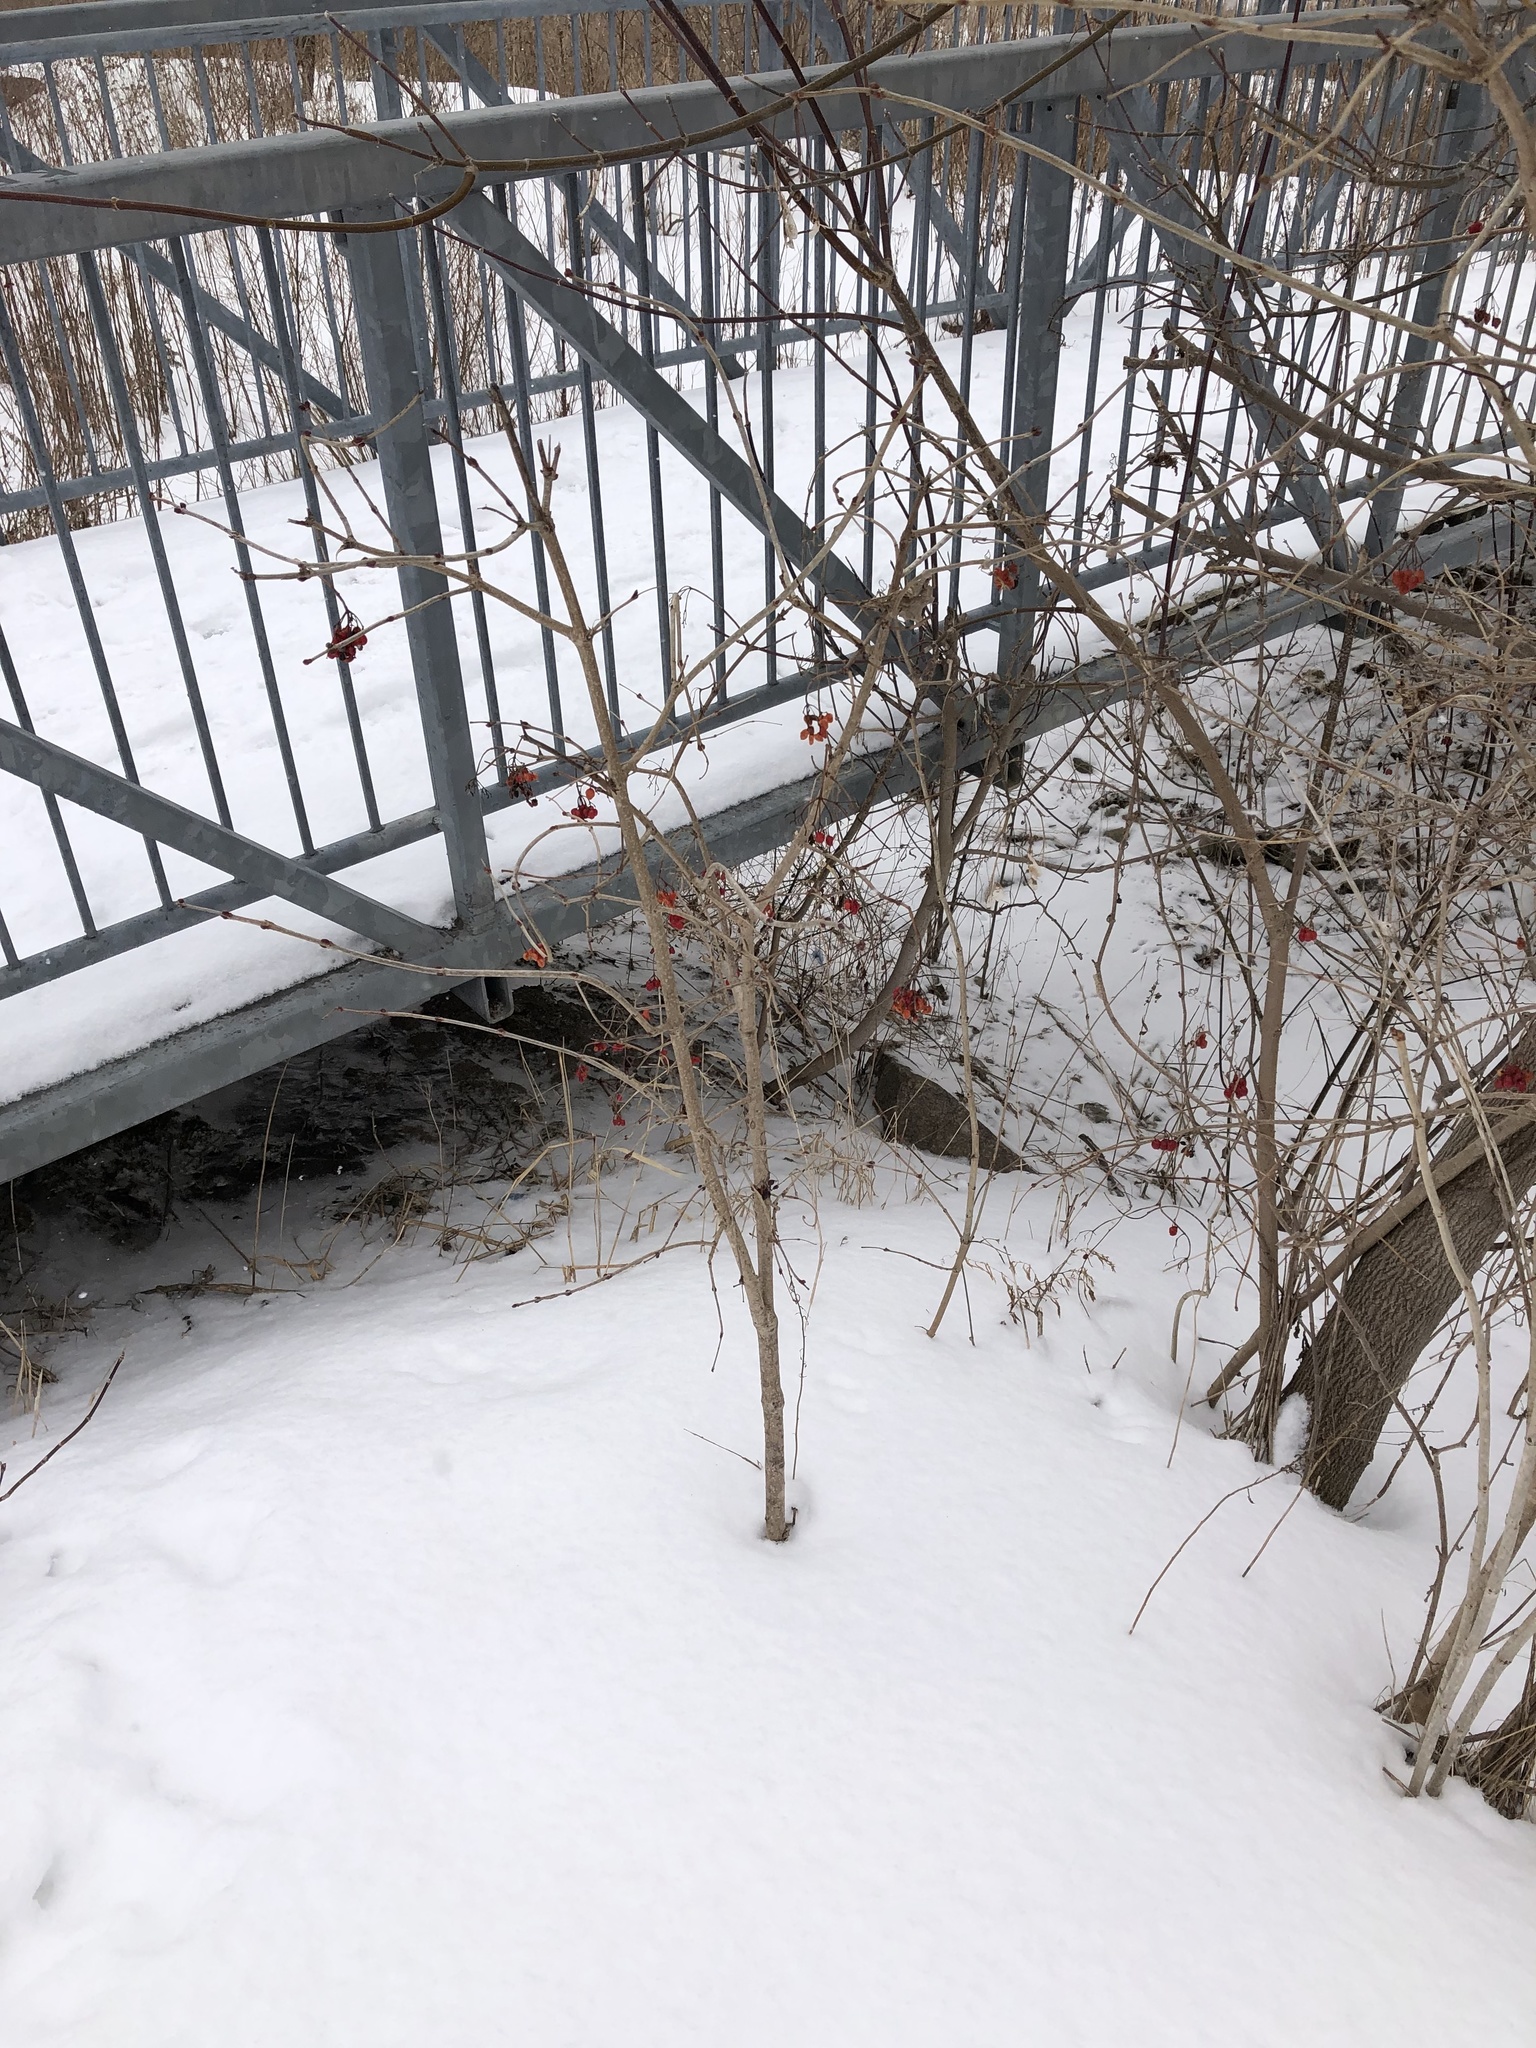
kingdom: Plantae
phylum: Tracheophyta
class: Magnoliopsida
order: Dipsacales
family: Viburnaceae
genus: Viburnum
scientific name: Viburnum opulus
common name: Guelder-rose
